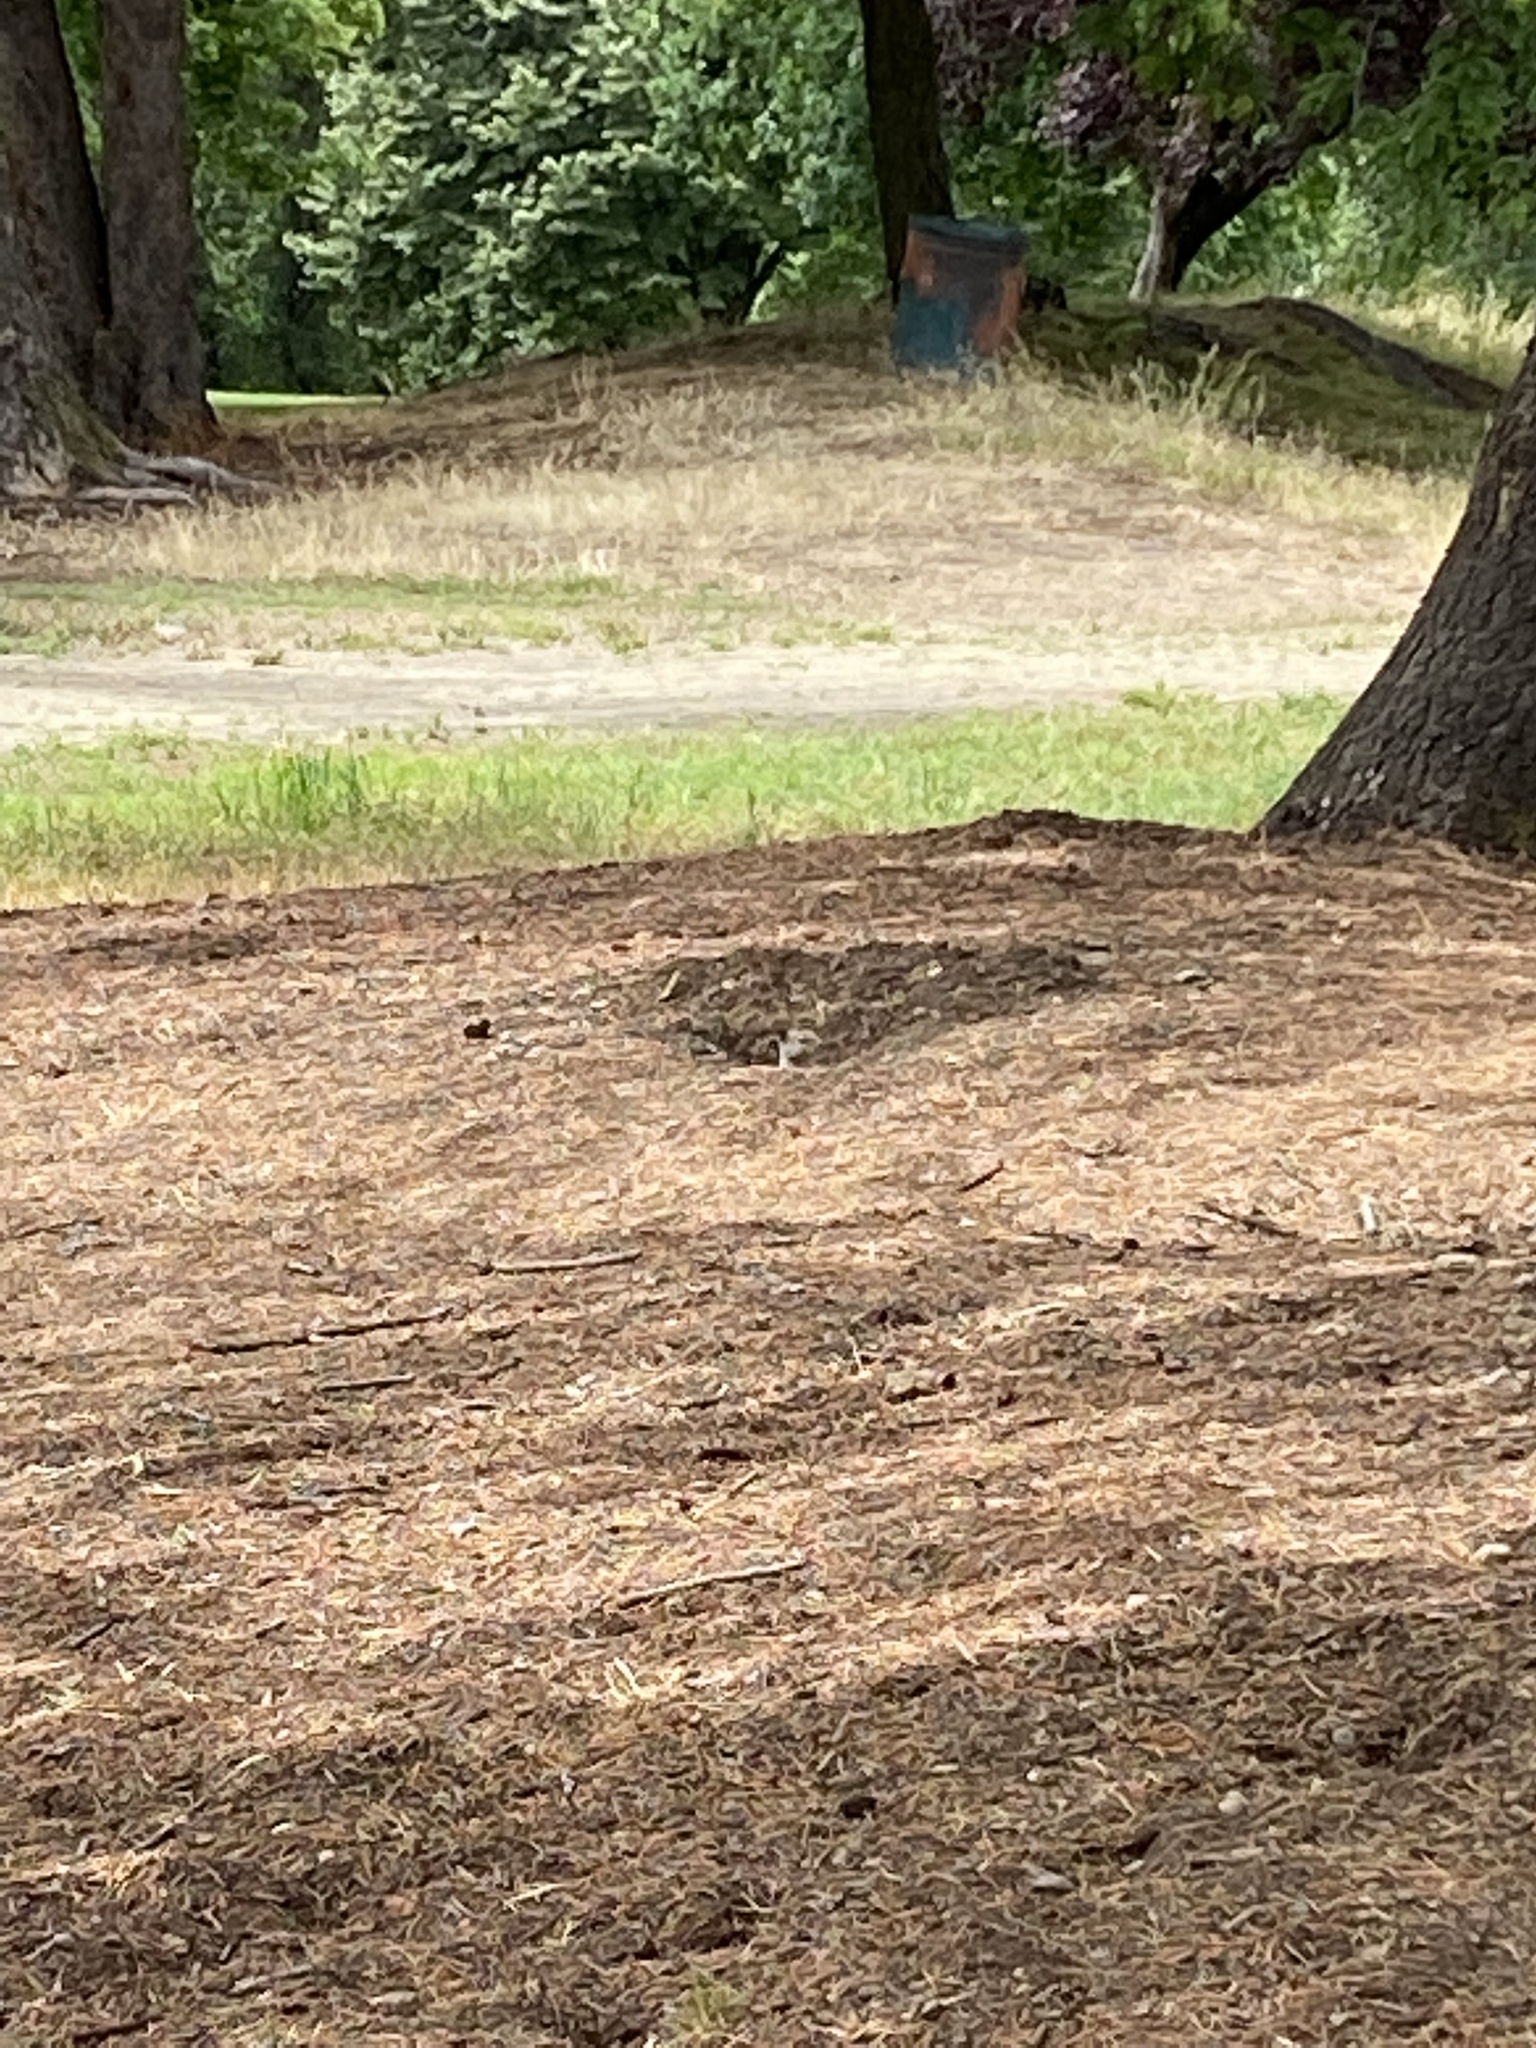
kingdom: Animalia
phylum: Chordata
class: Mammalia
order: Rodentia
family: Sciuridae
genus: Otospermophilus
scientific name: Otospermophilus beecheyi
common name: California ground squirrel
